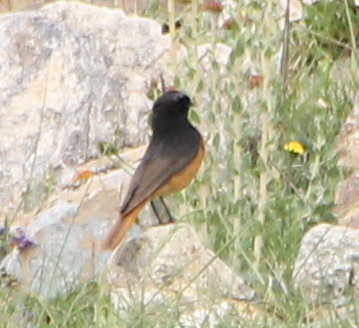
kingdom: Animalia
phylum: Chordata
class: Aves
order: Passeriformes
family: Muscicapidae
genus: Phoenicurus
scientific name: Phoenicurus ochruros
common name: Black redstart
